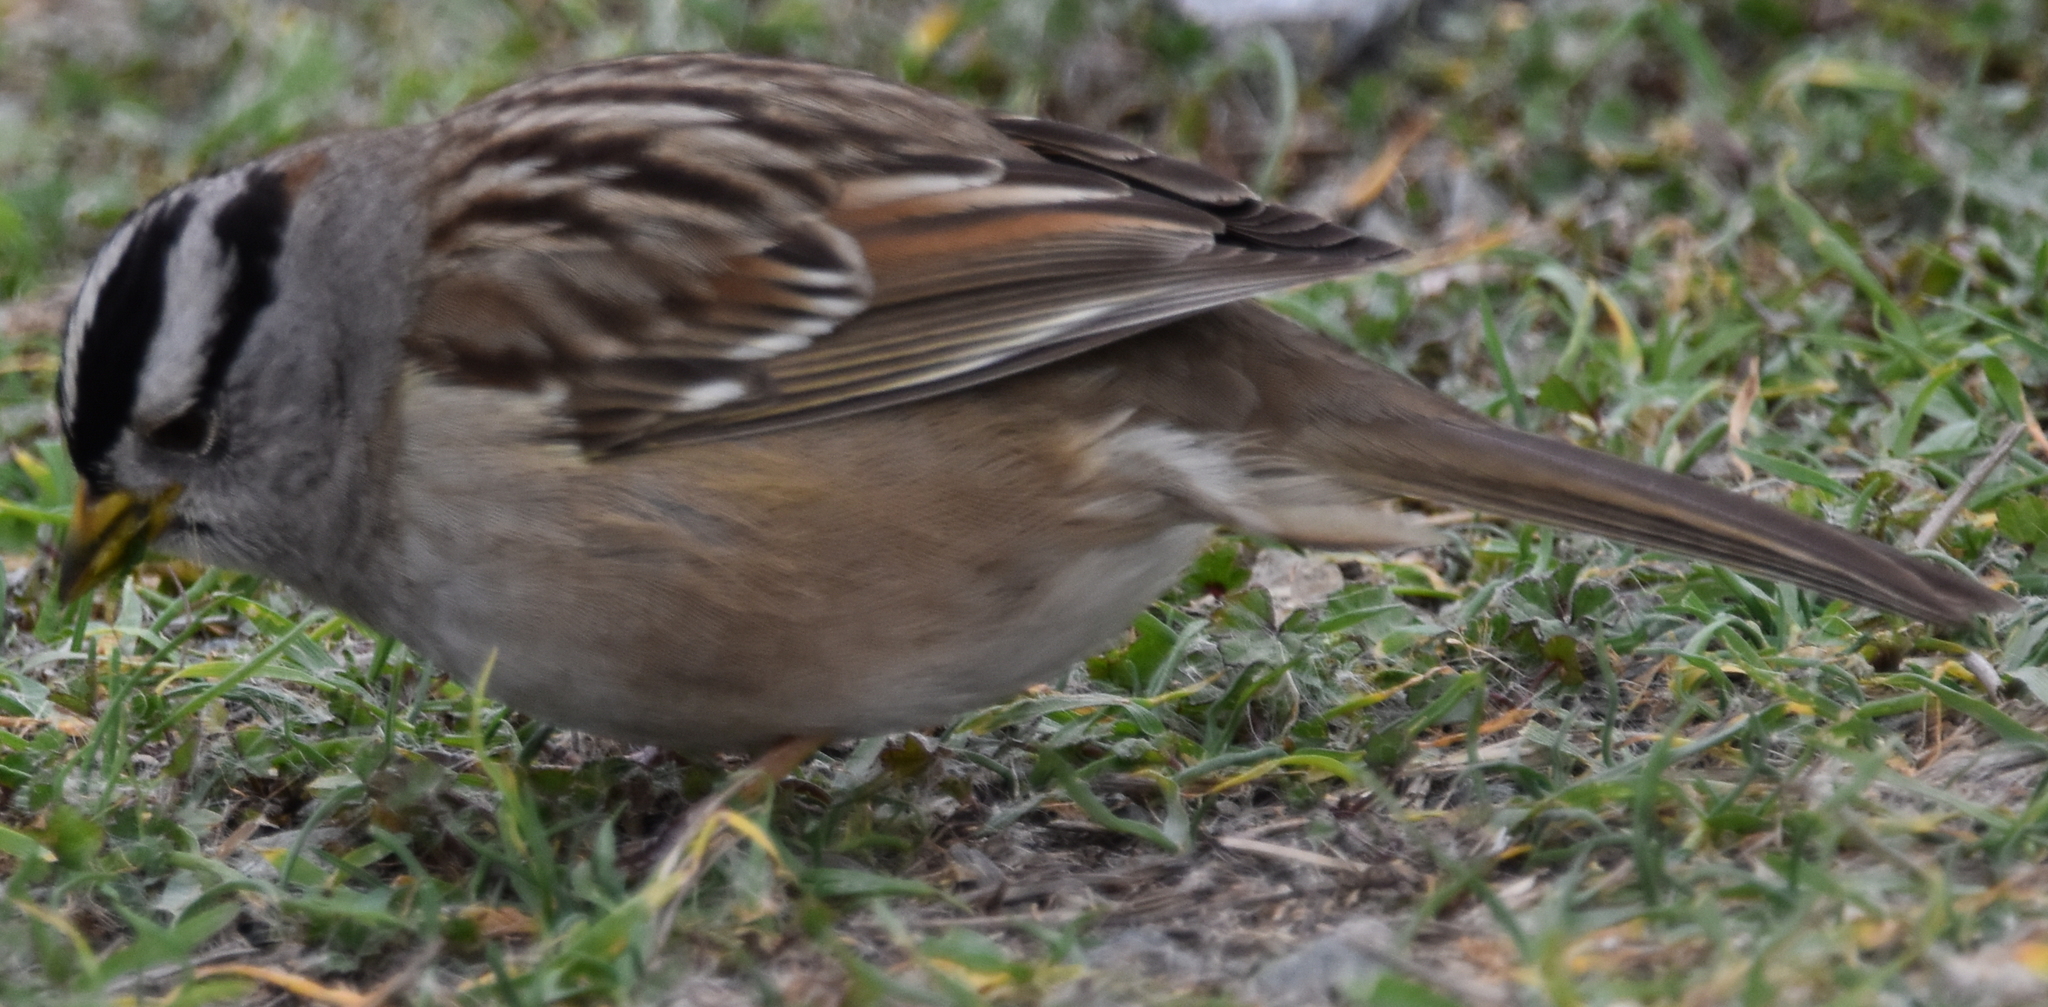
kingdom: Animalia
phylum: Chordata
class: Aves
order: Passeriformes
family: Passerellidae
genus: Zonotrichia
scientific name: Zonotrichia leucophrys
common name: White-crowned sparrow
